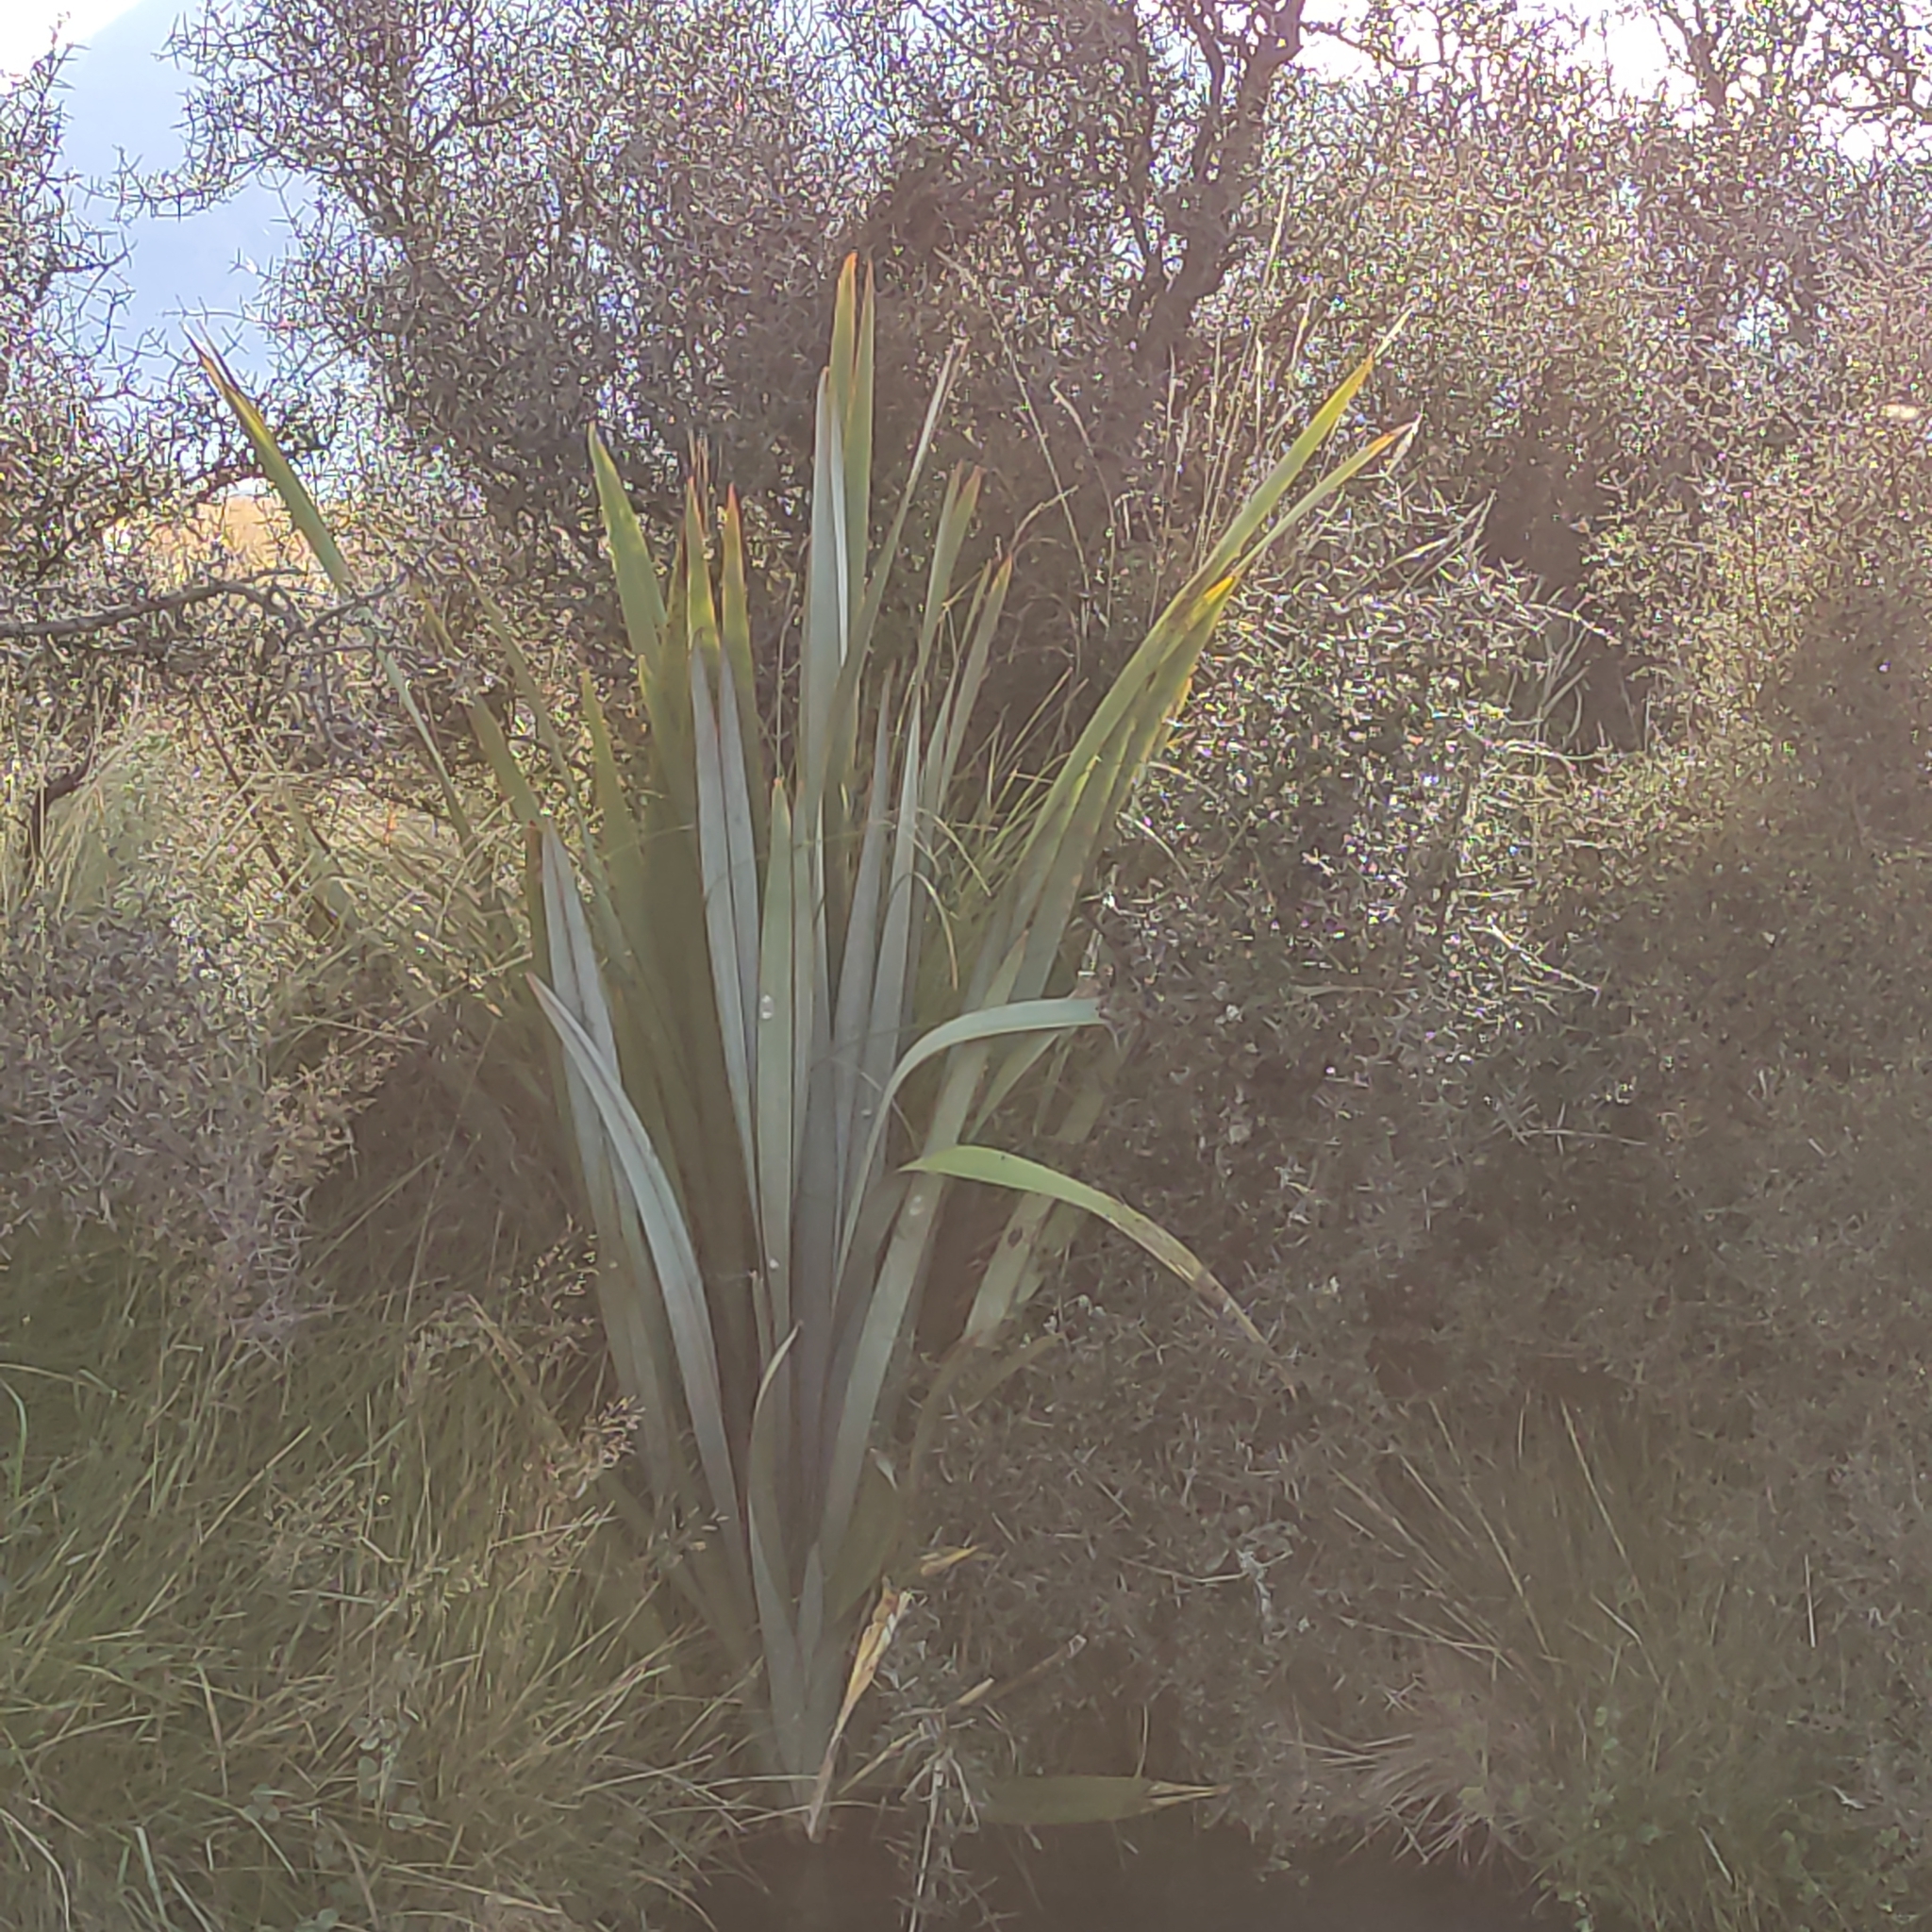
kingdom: Plantae
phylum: Tracheophyta
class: Liliopsida
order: Asparagales
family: Asphodelaceae
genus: Phormium
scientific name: Phormium tenax
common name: New zealand flax
